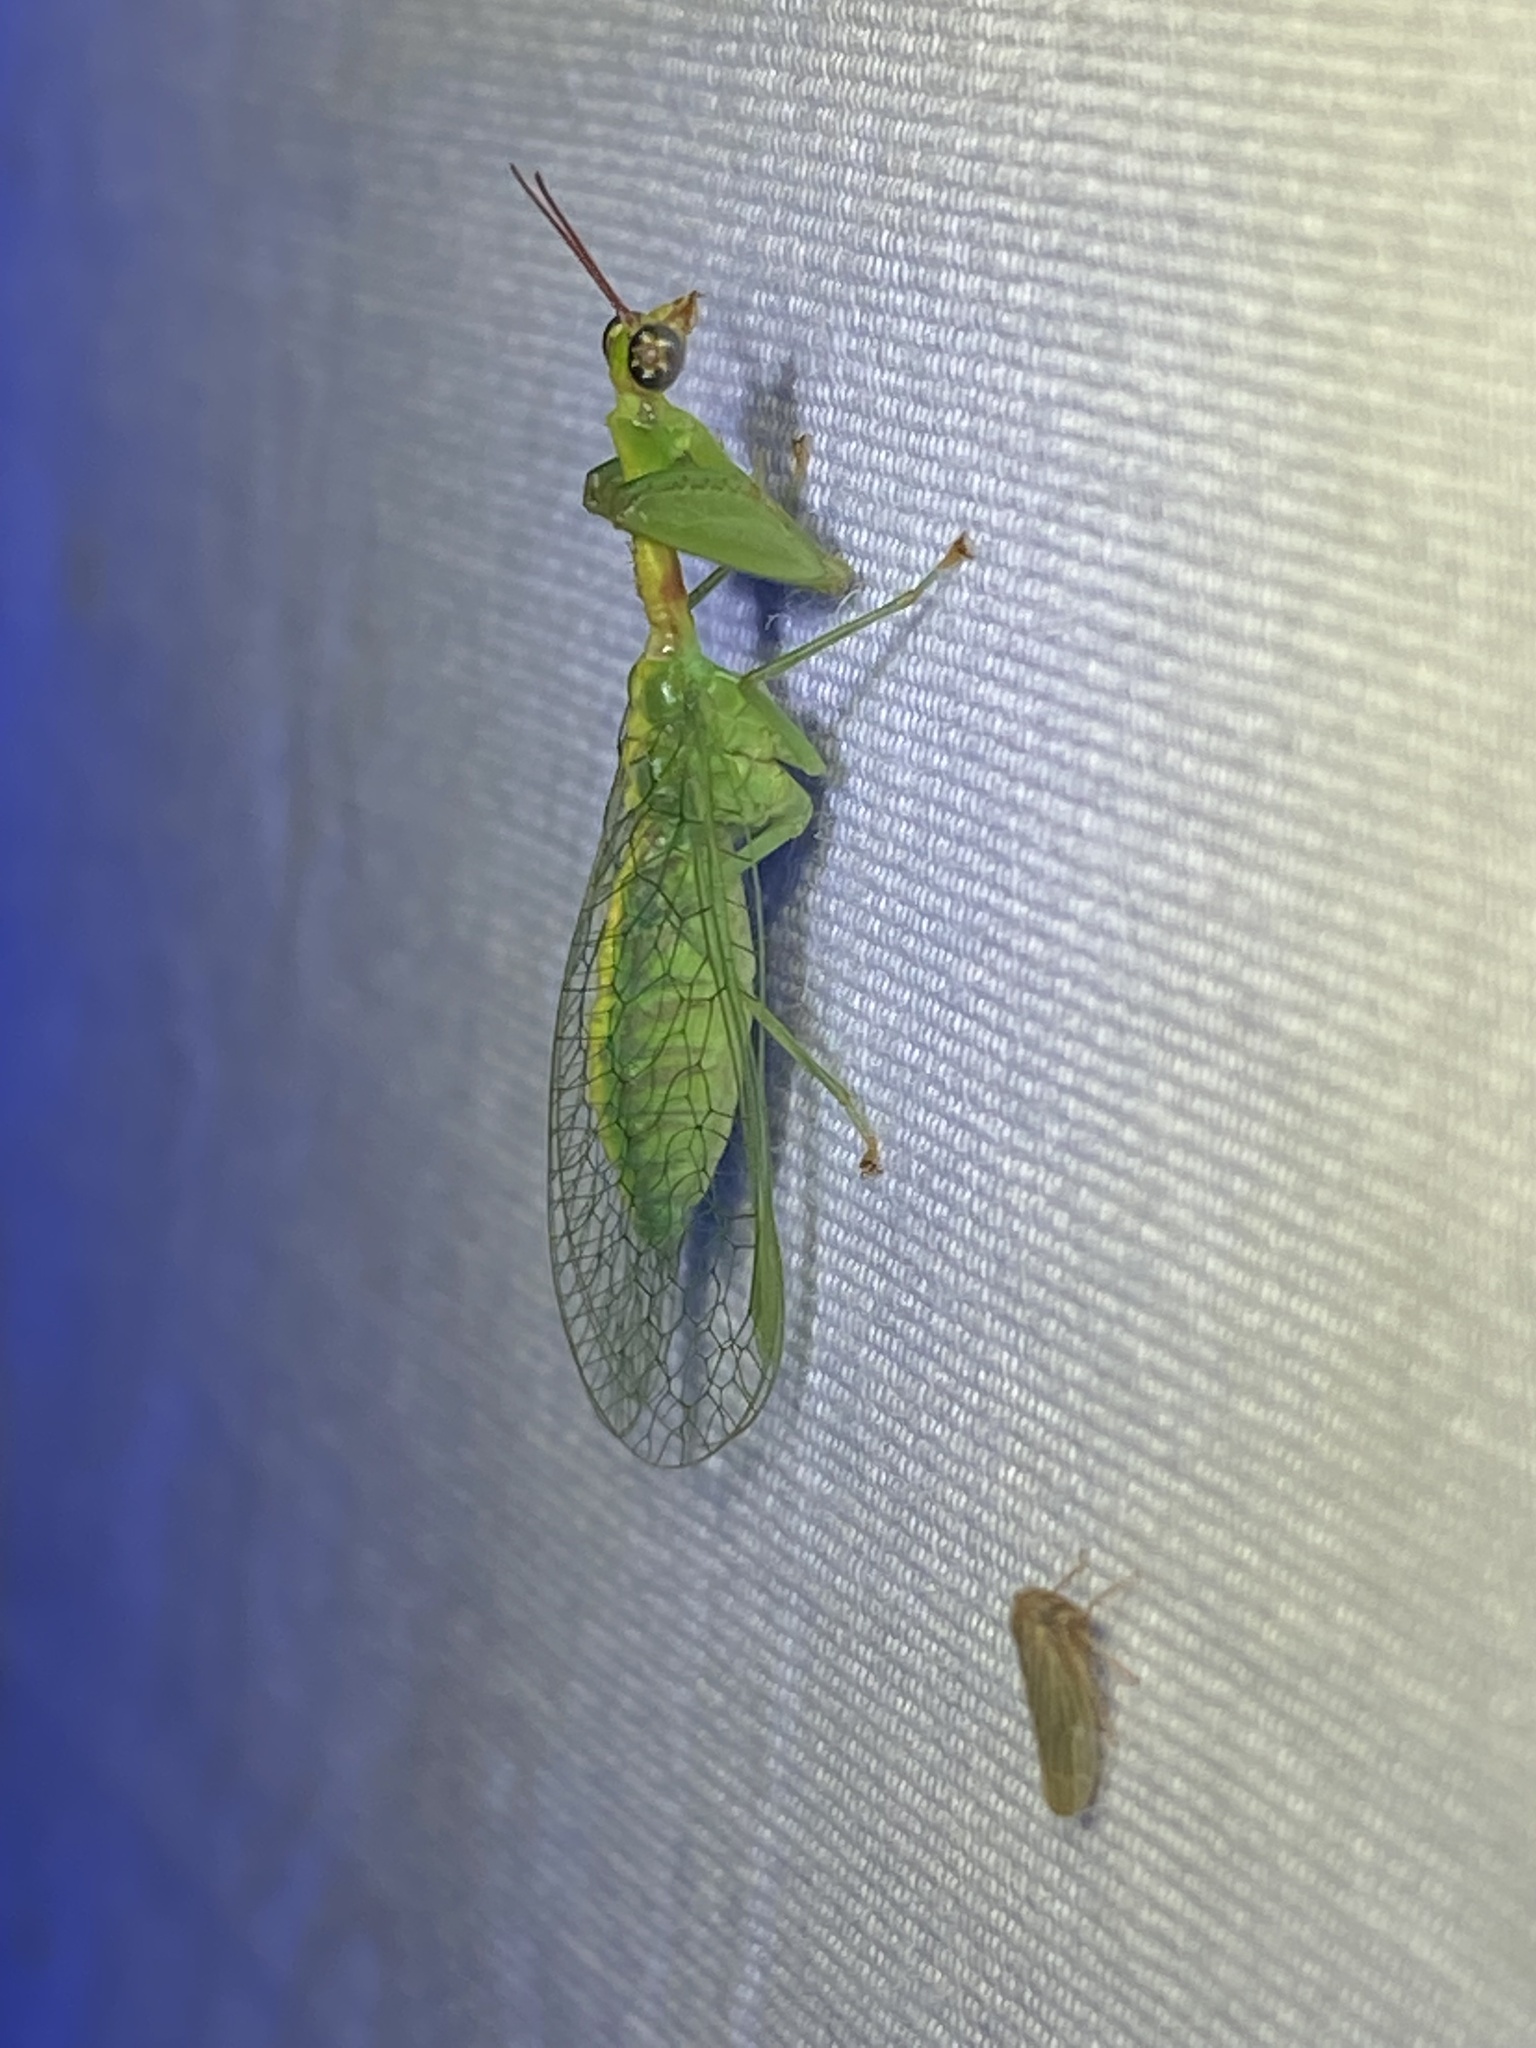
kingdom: Animalia
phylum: Arthropoda
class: Insecta
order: Neuroptera
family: Mantispidae
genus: Zeugomantispa
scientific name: Zeugomantispa minuta
